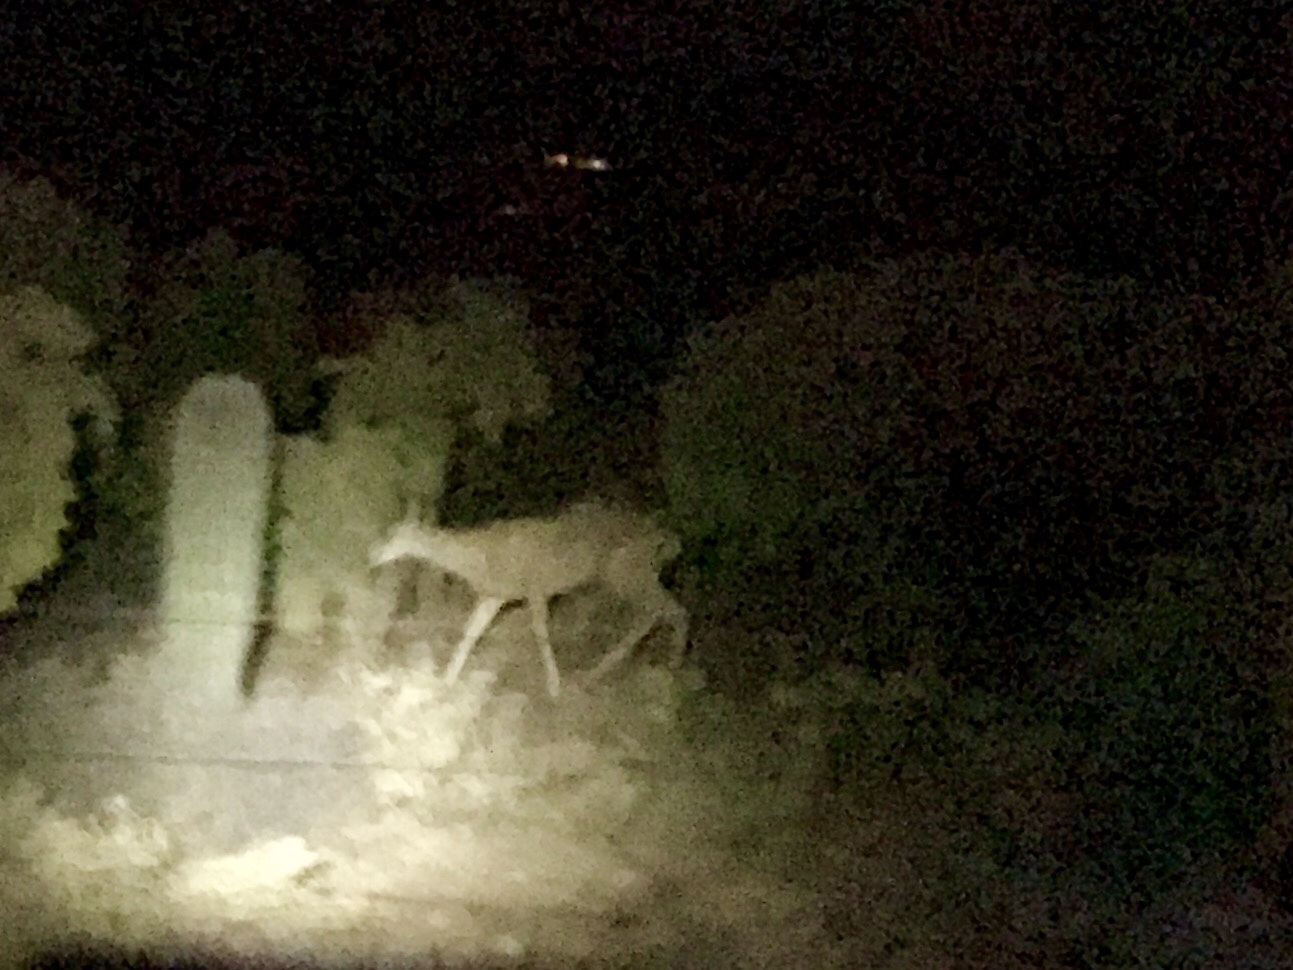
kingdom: Animalia
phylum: Chordata
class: Mammalia
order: Artiodactyla
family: Cervidae
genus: Odocoileus
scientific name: Odocoileus hemionus
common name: Mule deer
